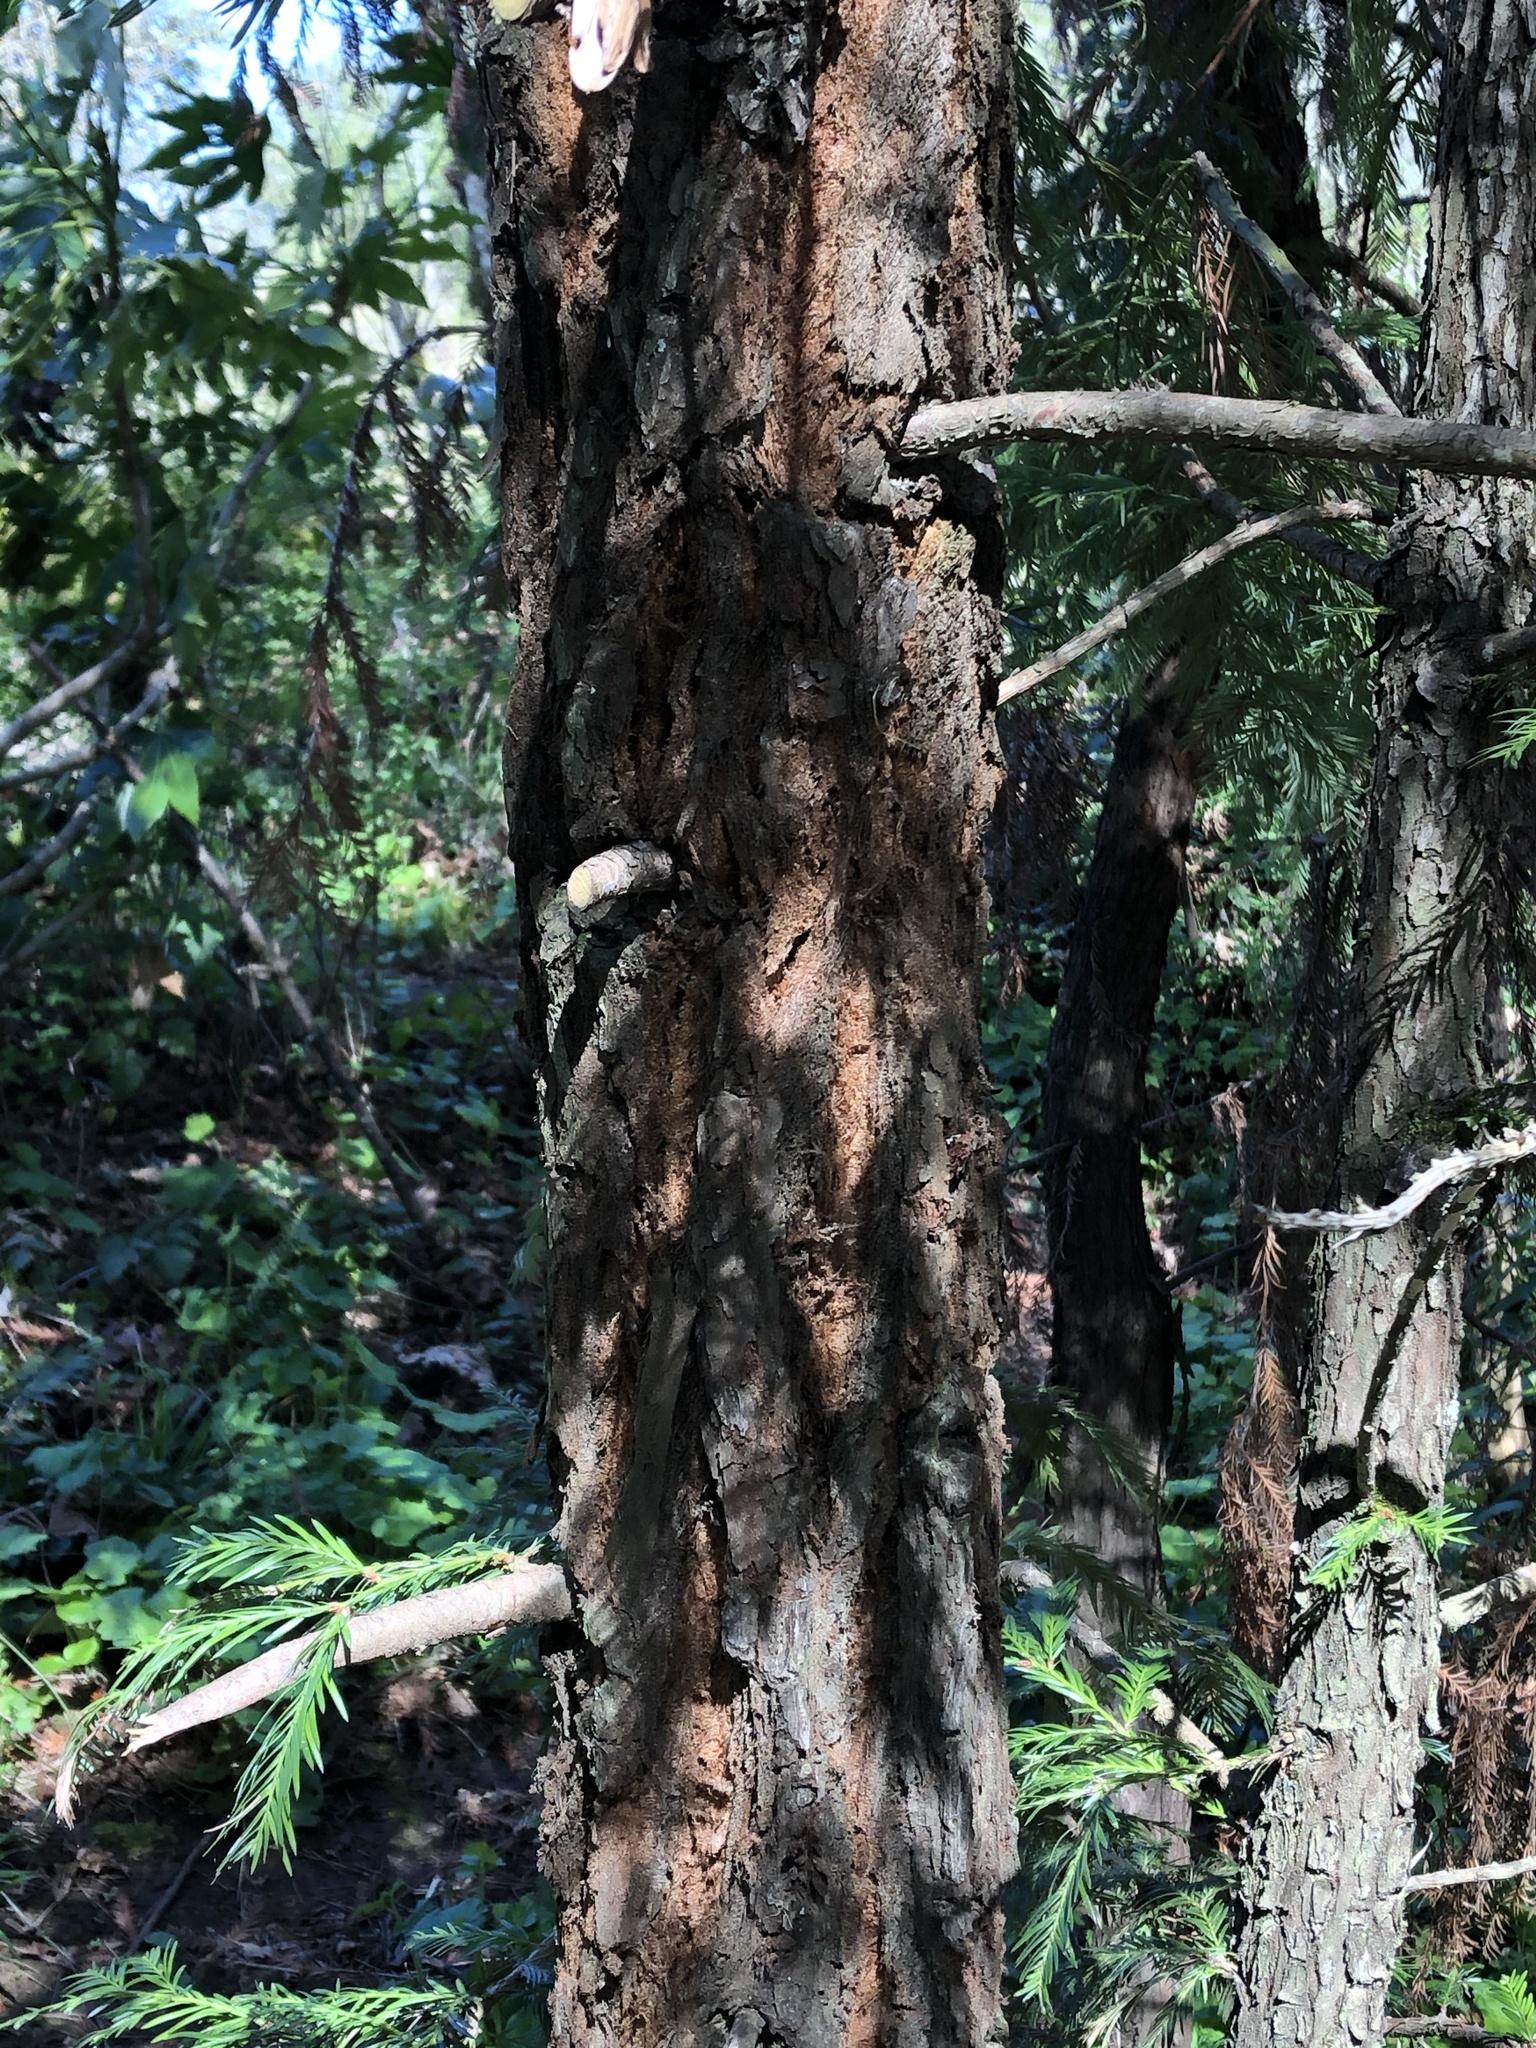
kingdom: Plantae
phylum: Tracheophyta
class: Pinopsida
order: Pinales
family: Cupressaceae
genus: Sequoia
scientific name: Sequoia sempervirens
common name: Coast redwood
